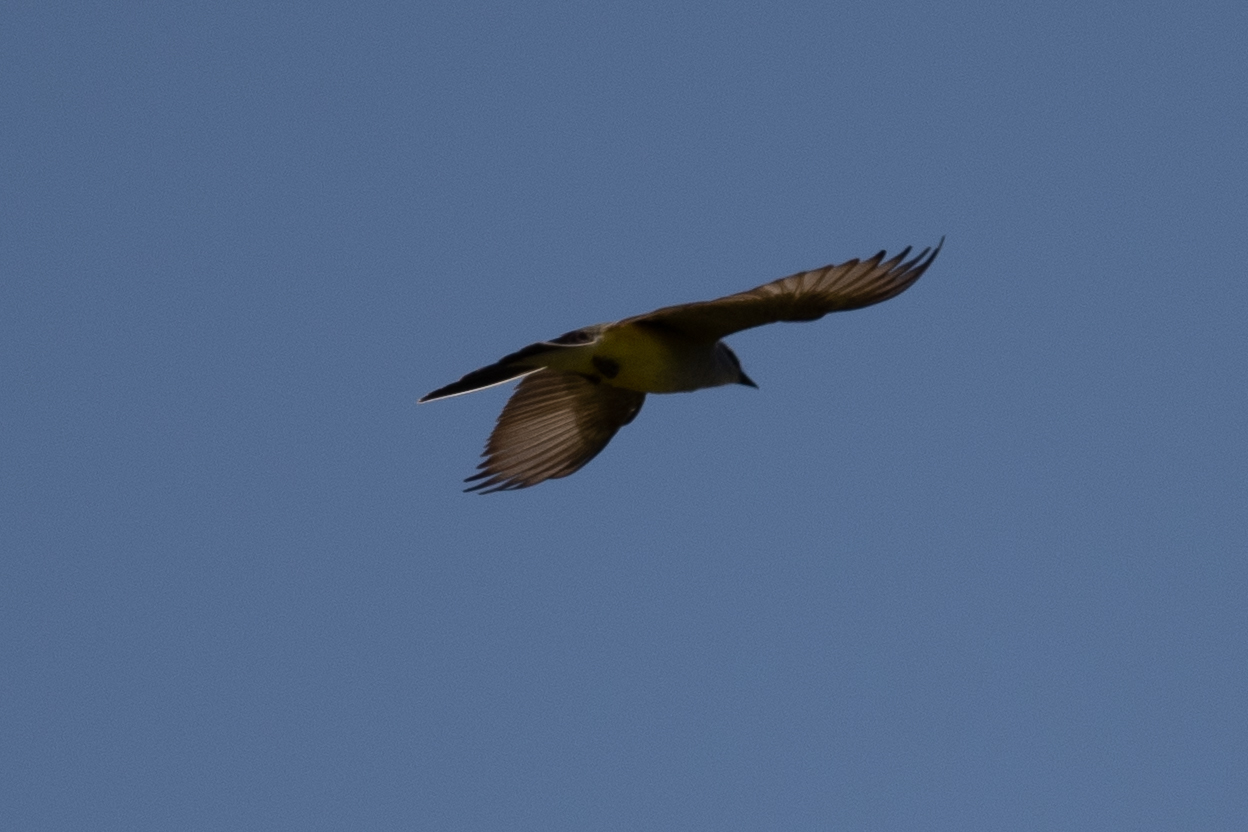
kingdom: Animalia
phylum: Chordata
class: Aves
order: Passeriformes
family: Tyrannidae
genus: Tyrannus
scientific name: Tyrannus verticalis
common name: Western kingbird
